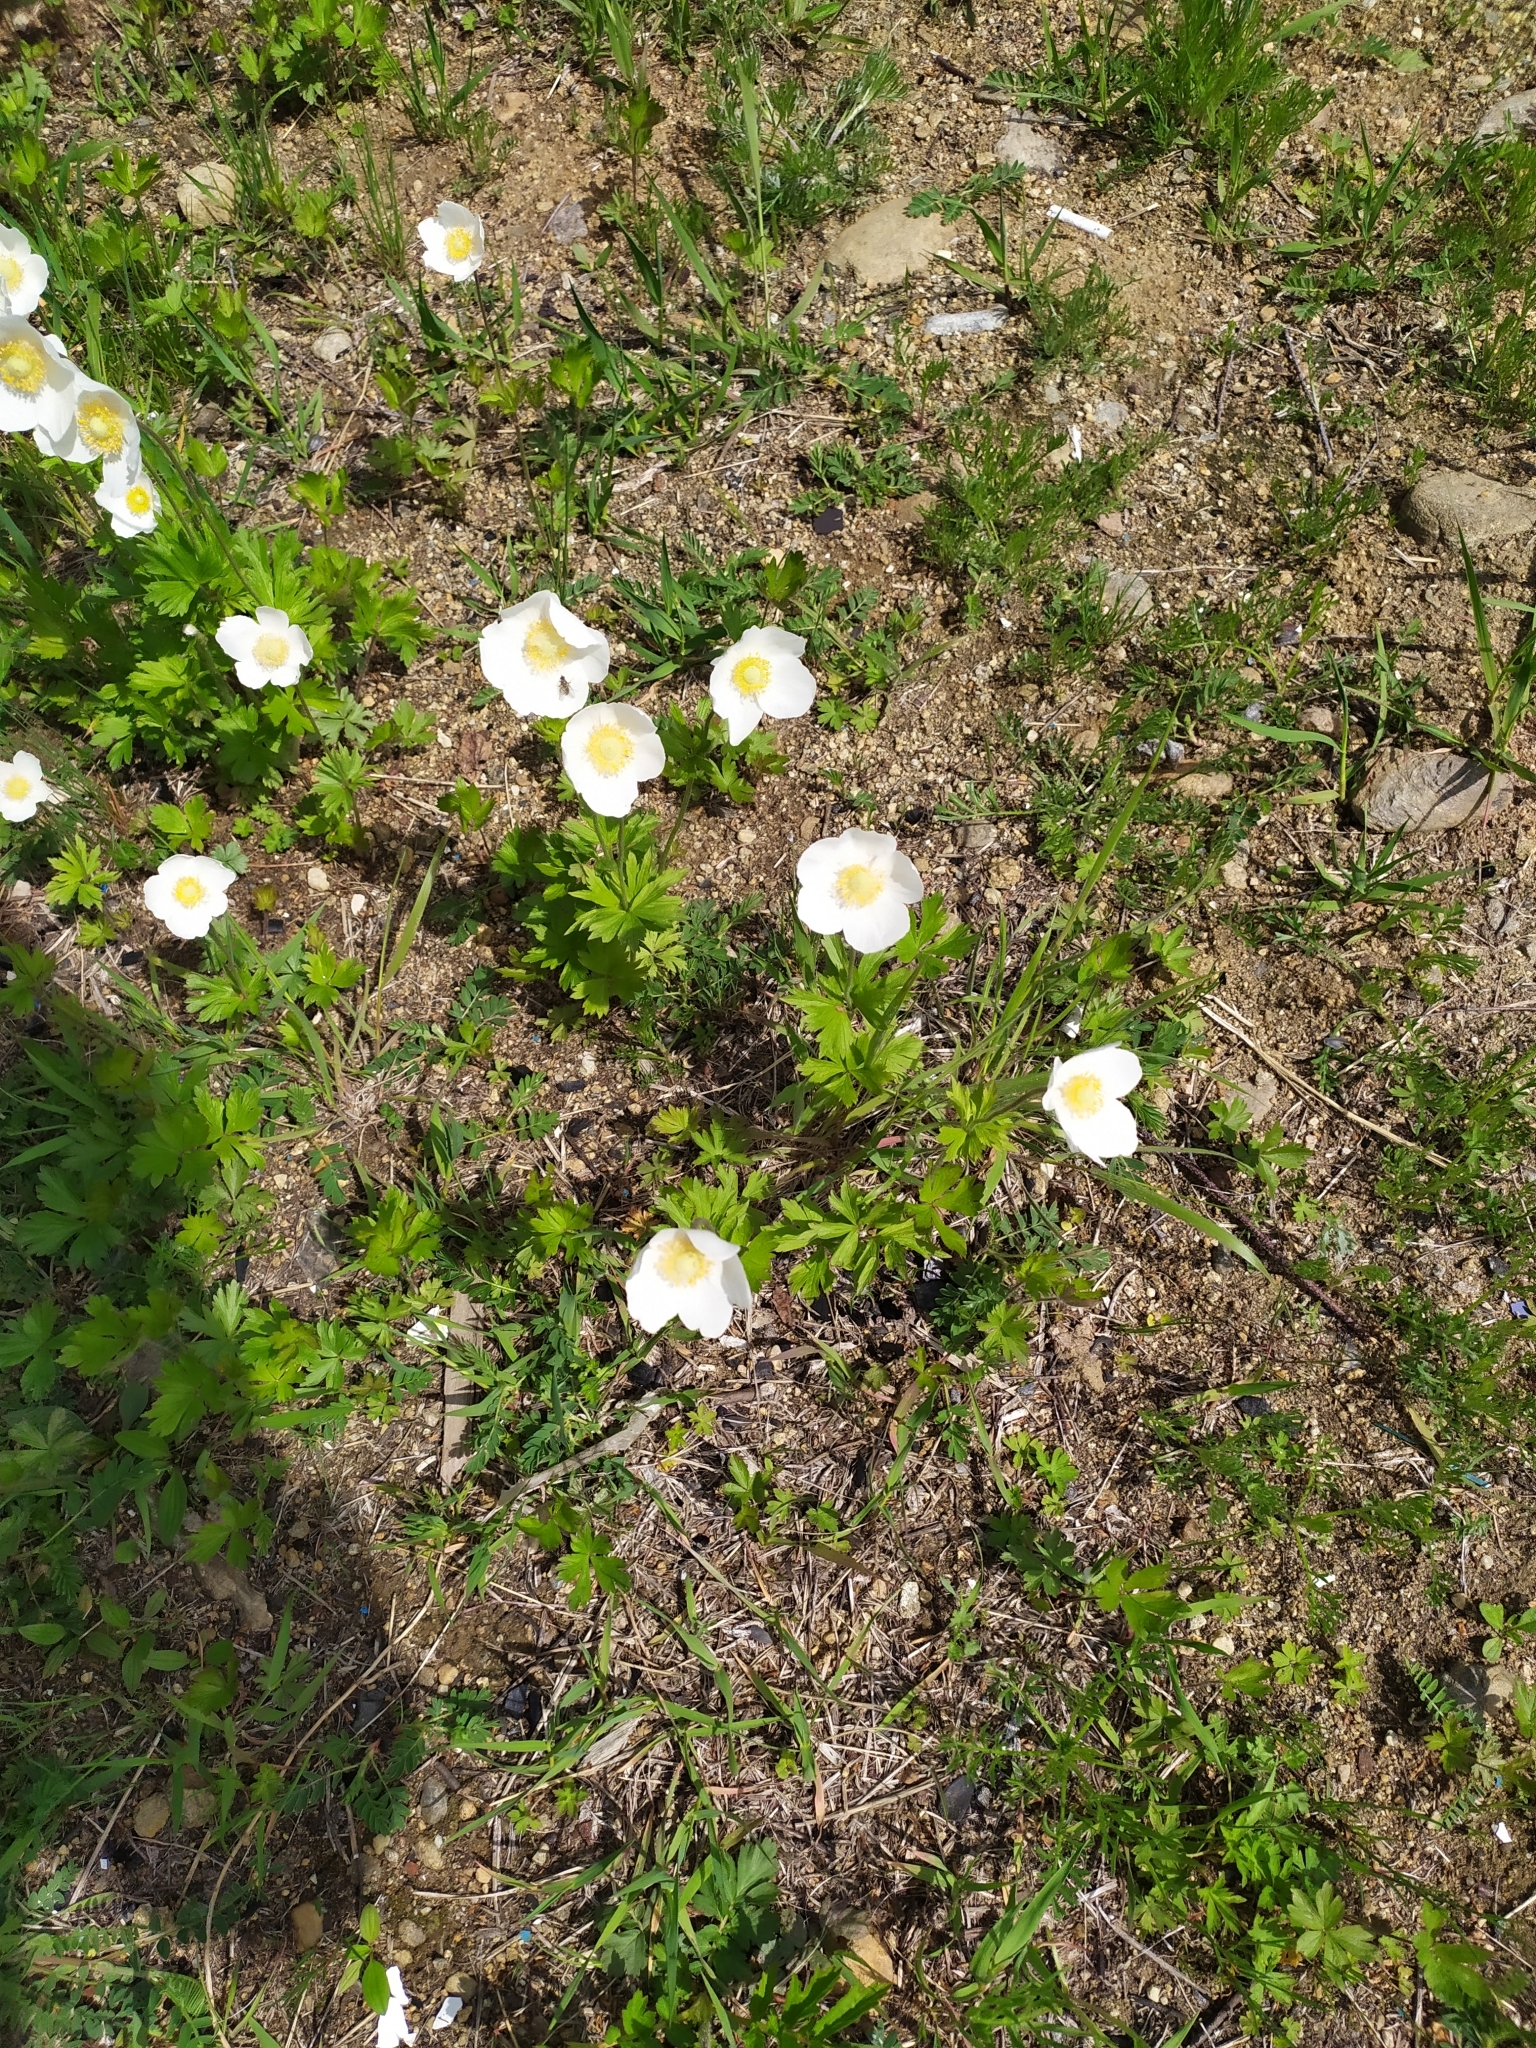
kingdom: Plantae
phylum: Tracheophyta
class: Magnoliopsida
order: Ranunculales
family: Ranunculaceae
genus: Anemone
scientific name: Anemone sylvestris
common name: Snowdrop anemone
